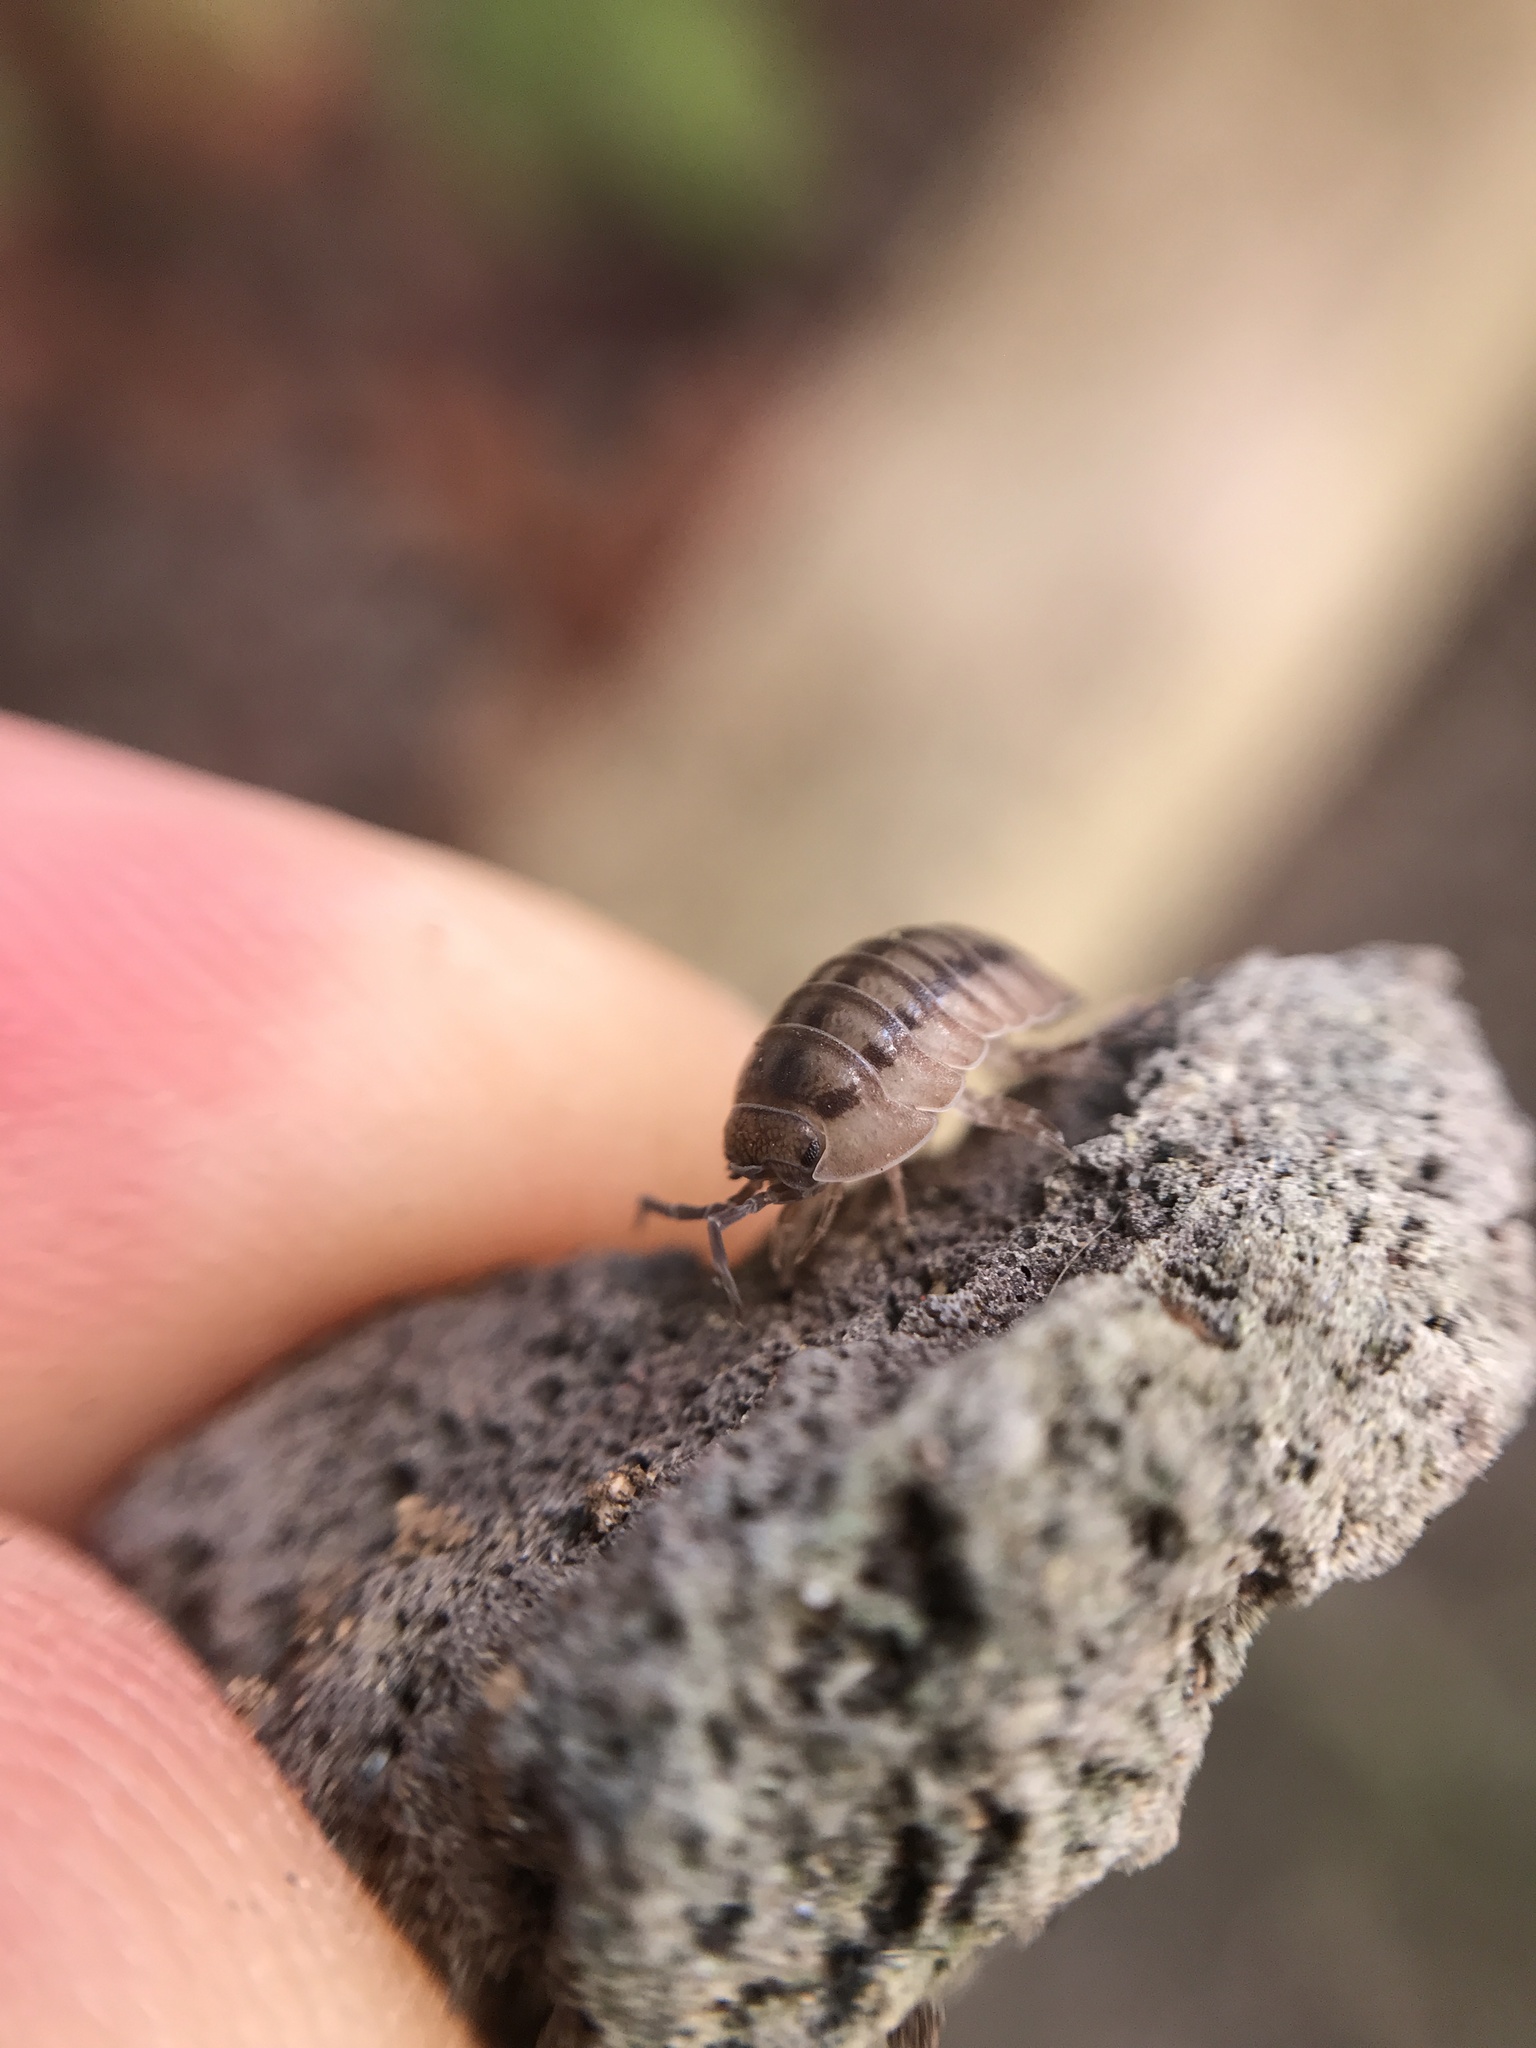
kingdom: Animalia
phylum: Arthropoda
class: Malacostraca
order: Isopoda
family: Armadillidiidae
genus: Armadillidium
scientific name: Armadillidium vulgare
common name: Common pill woodlouse
